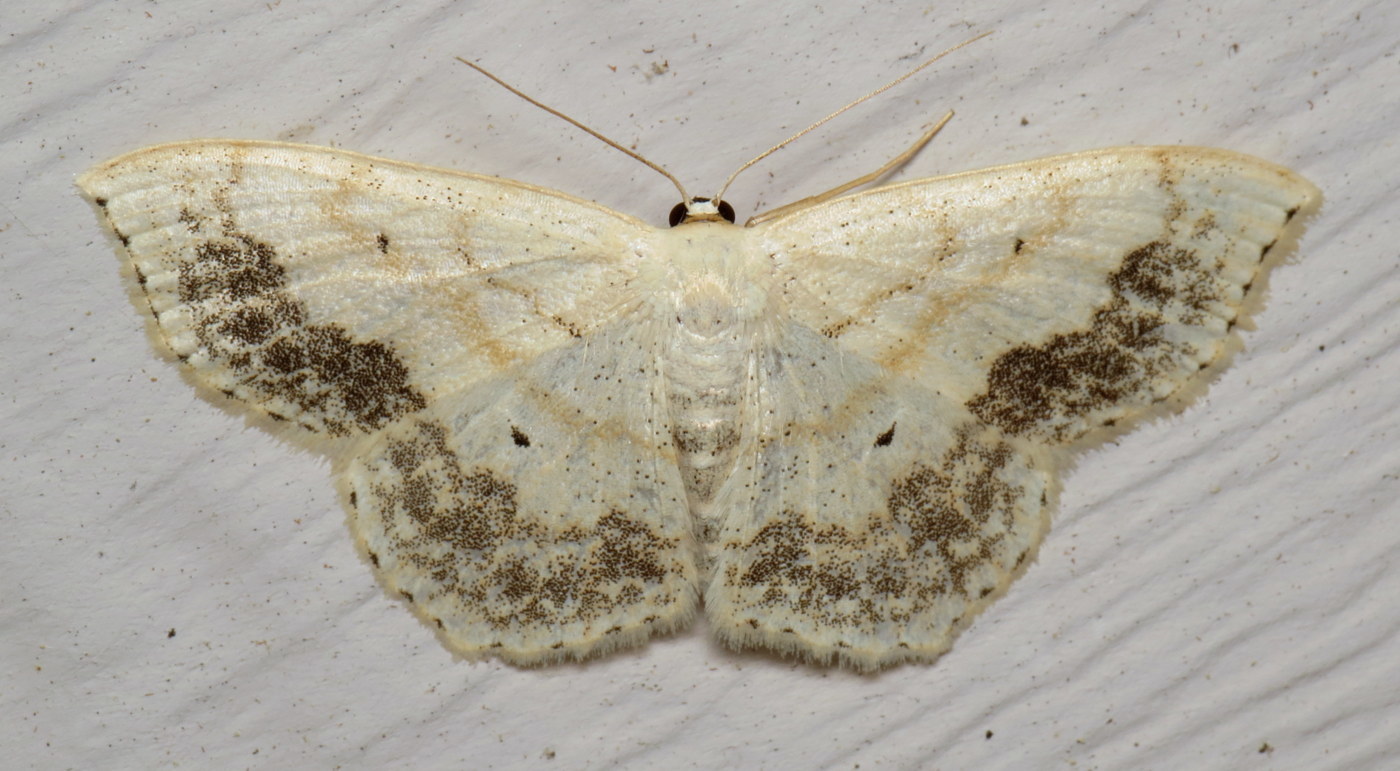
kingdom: Animalia
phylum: Arthropoda
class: Insecta
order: Lepidoptera
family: Geometridae
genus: Scopula
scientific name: Scopula limboundata
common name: Large lace border
